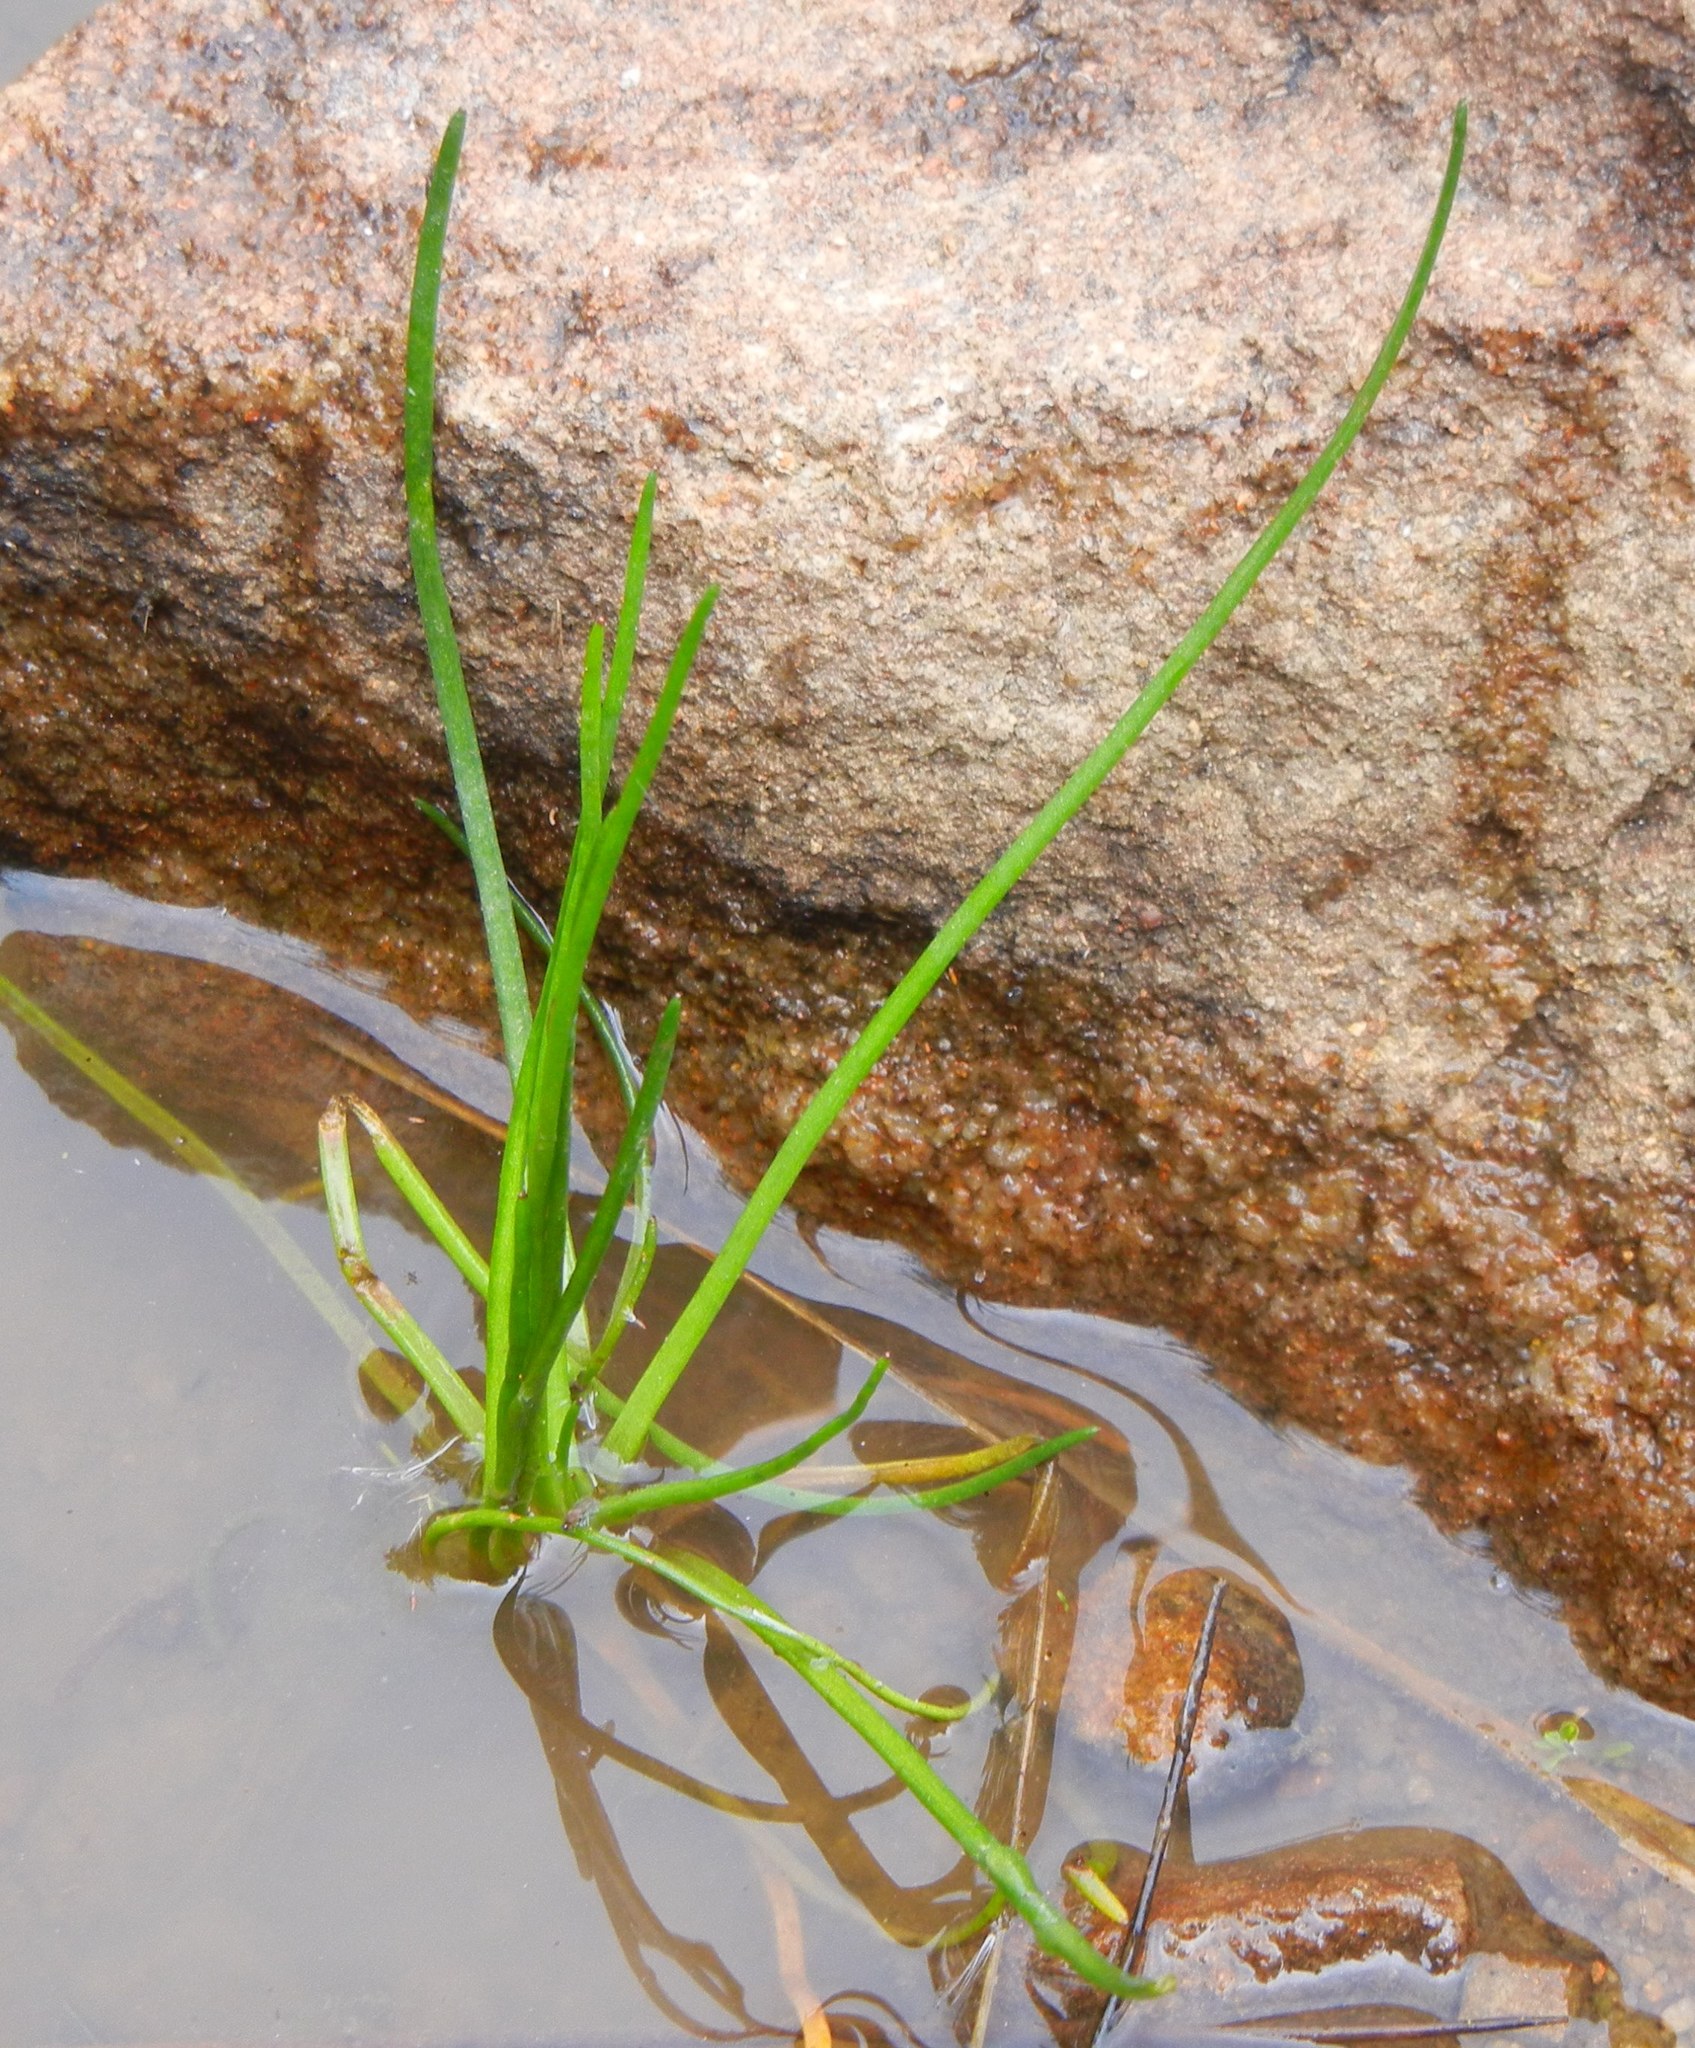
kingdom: Plantae
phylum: Tracheophyta
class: Magnoliopsida
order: Lamiales
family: Plantaginaceae
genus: Littorella
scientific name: Littorella uniflora
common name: Shoreweed
